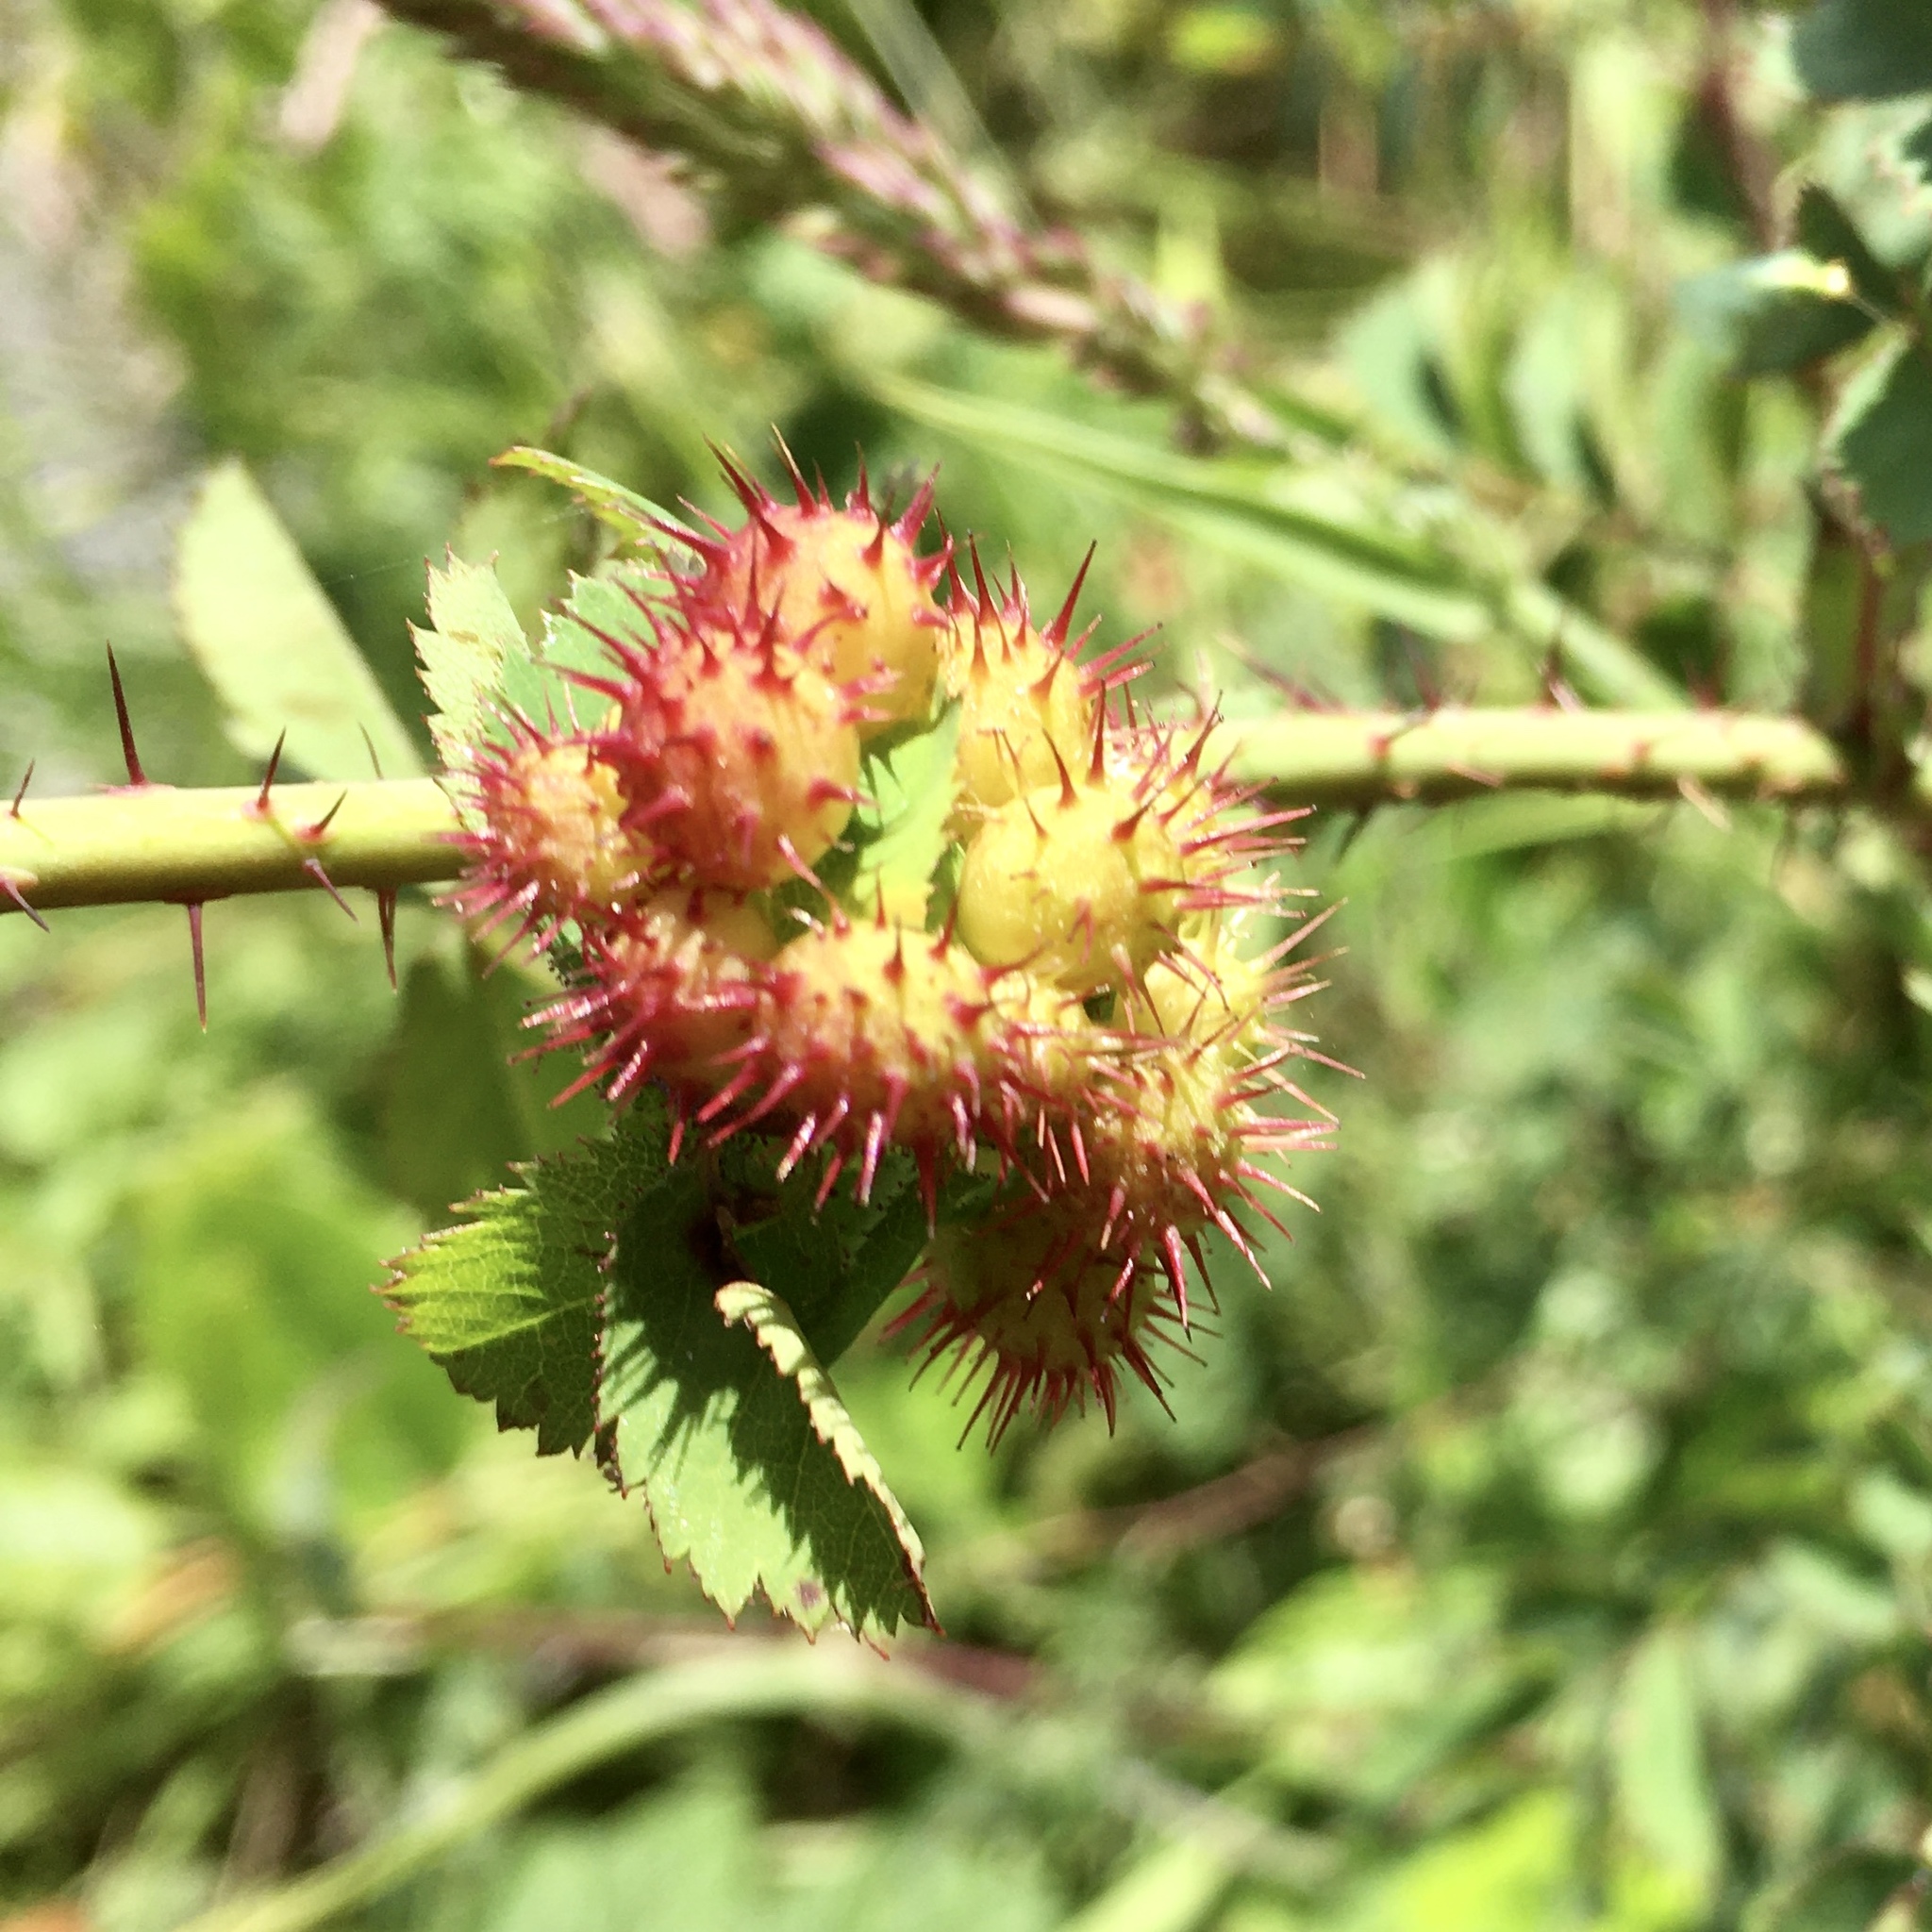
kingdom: Animalia
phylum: Arthropoda
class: Insecta
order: Hymenoptera
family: Cynipidae
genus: Diplolepis
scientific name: Diplolepis polita
